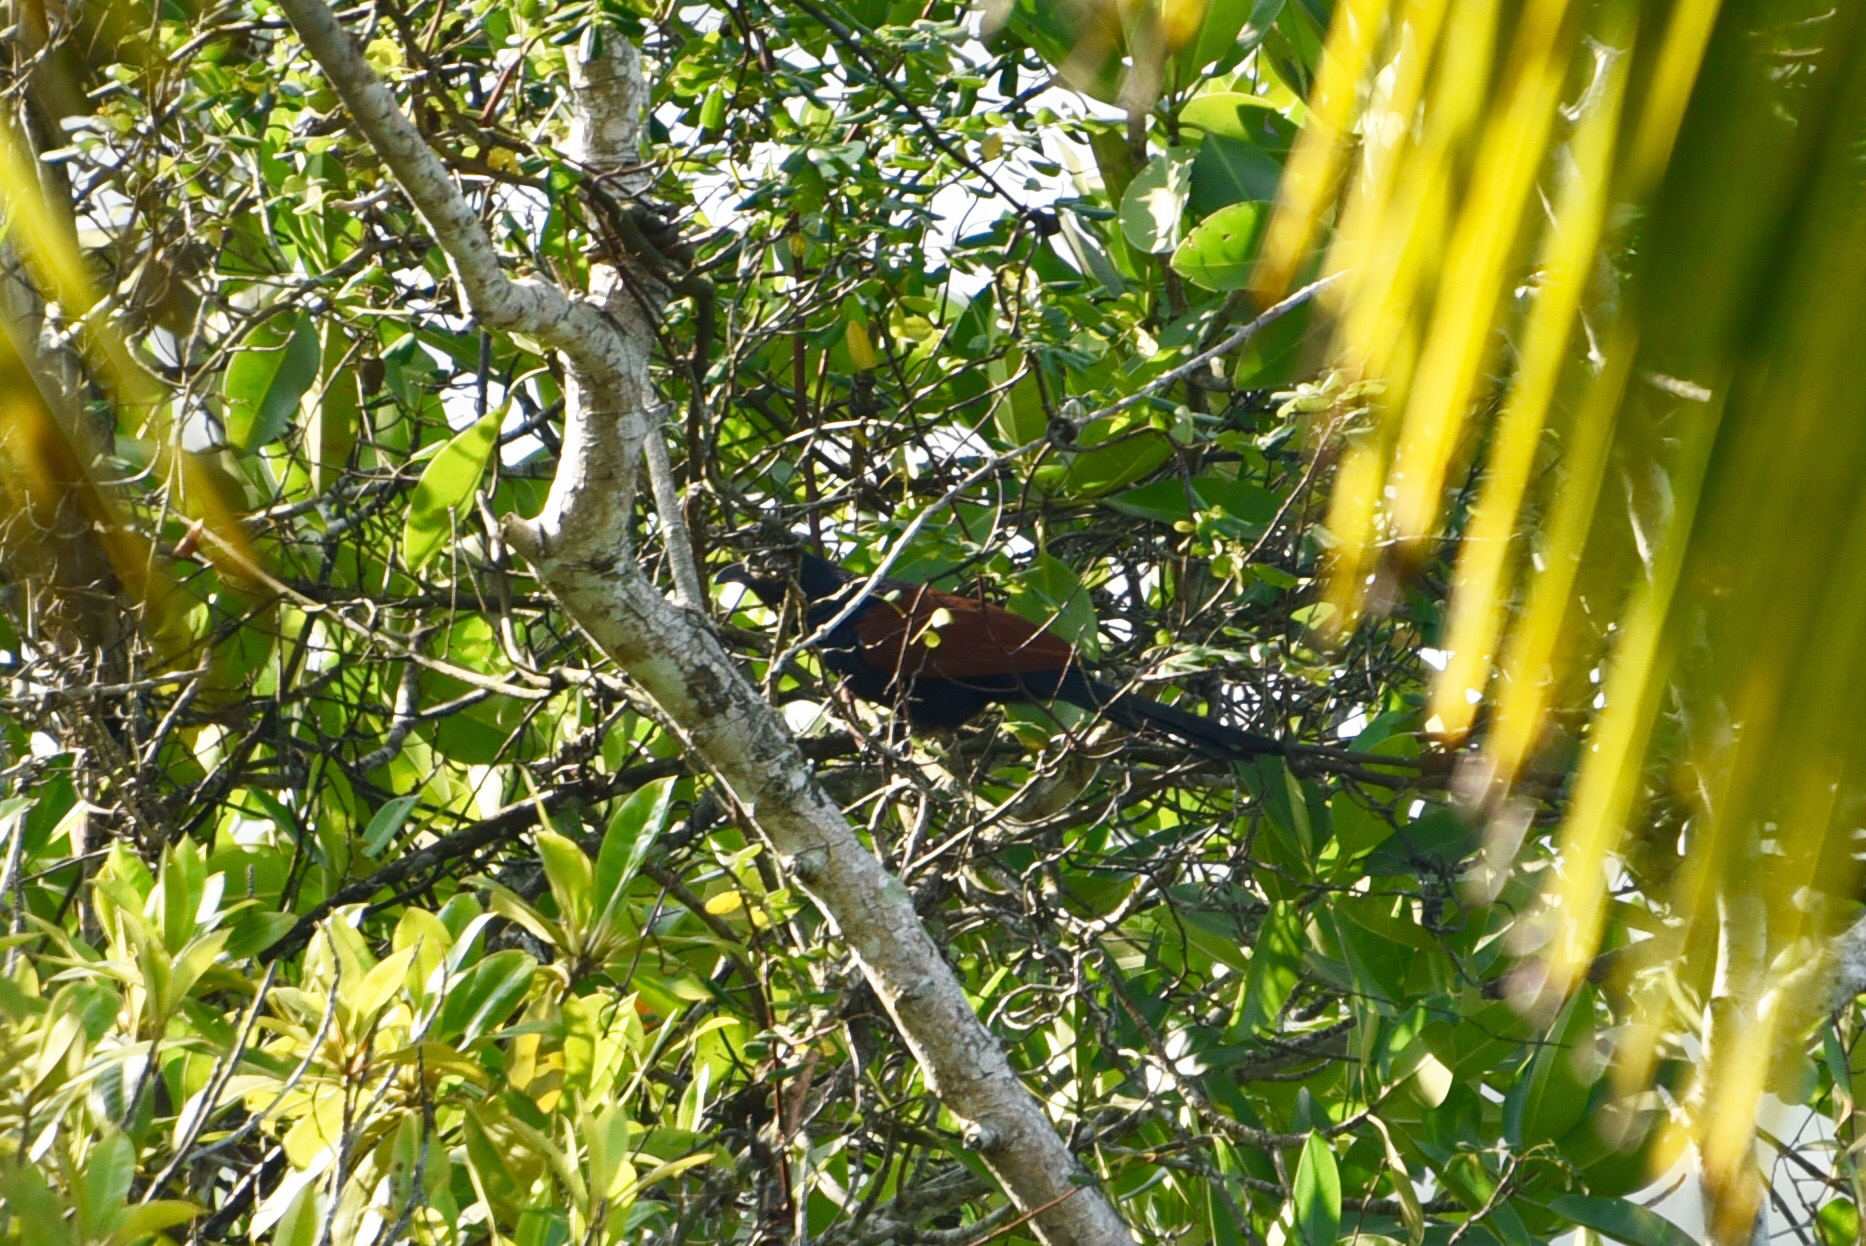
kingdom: Animalia
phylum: Chordata
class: Aves
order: Cuculiformes
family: Cuculidae
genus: Centropus
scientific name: Centropus sinensis
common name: Greater coucal
